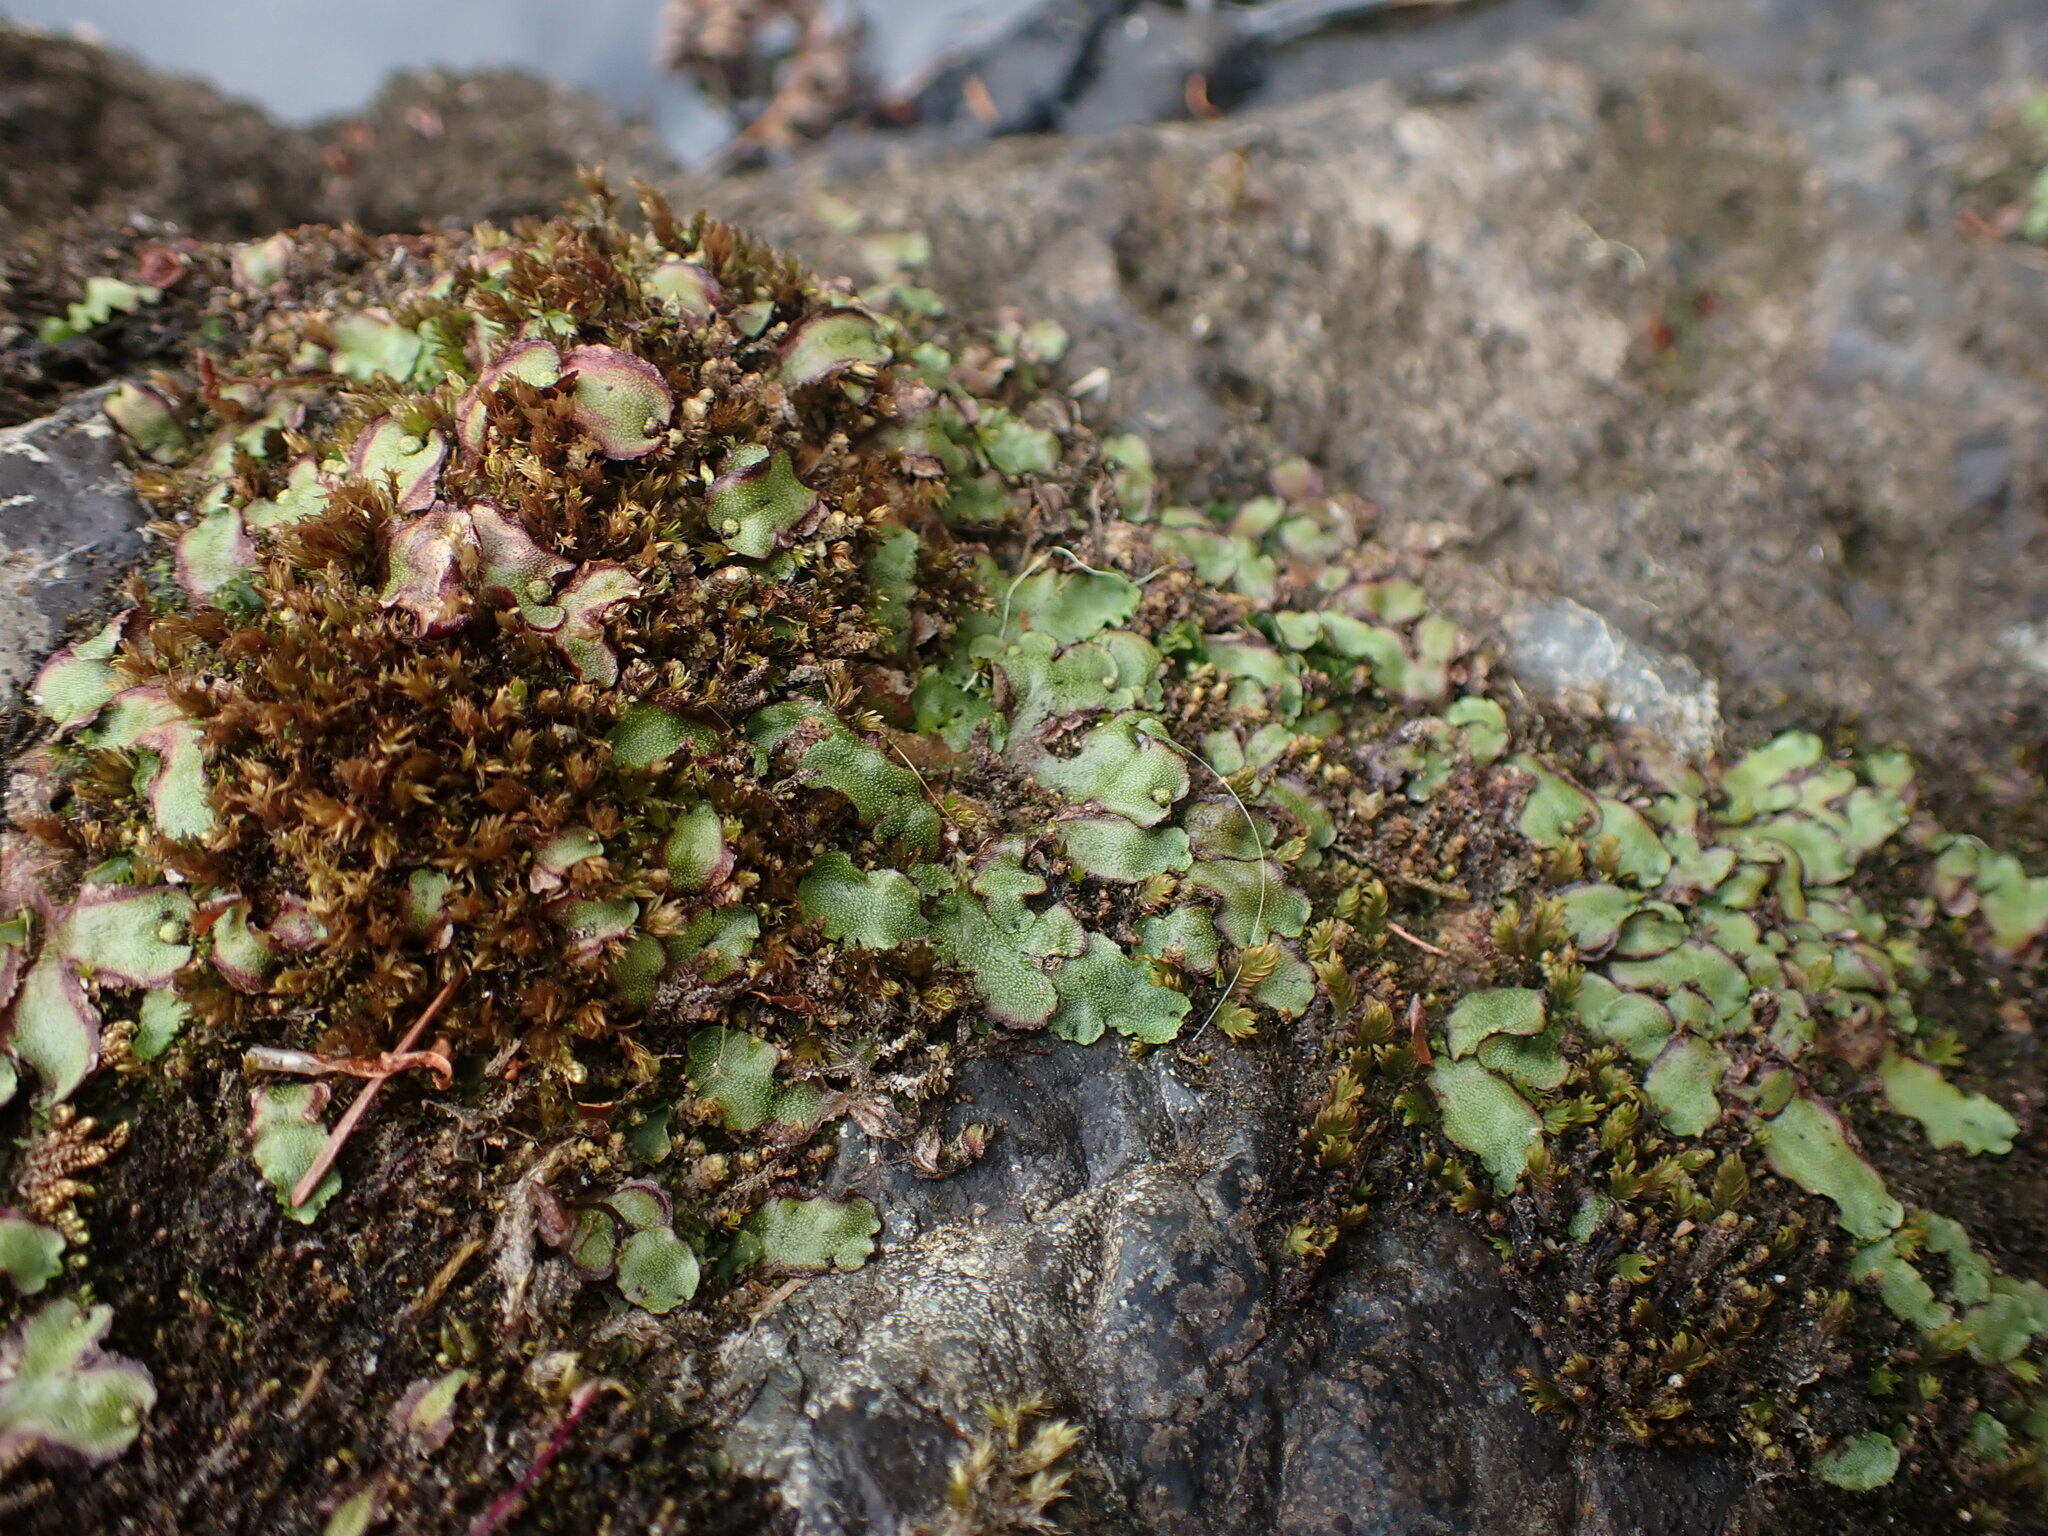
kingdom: Plantae
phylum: Marchantiophyta
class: Marchantiopsida
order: Marchantiales
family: Marchantiaceae
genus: Marchantia
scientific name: Marchantia quadrata
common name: Narrow mushroom-headed liverwort
